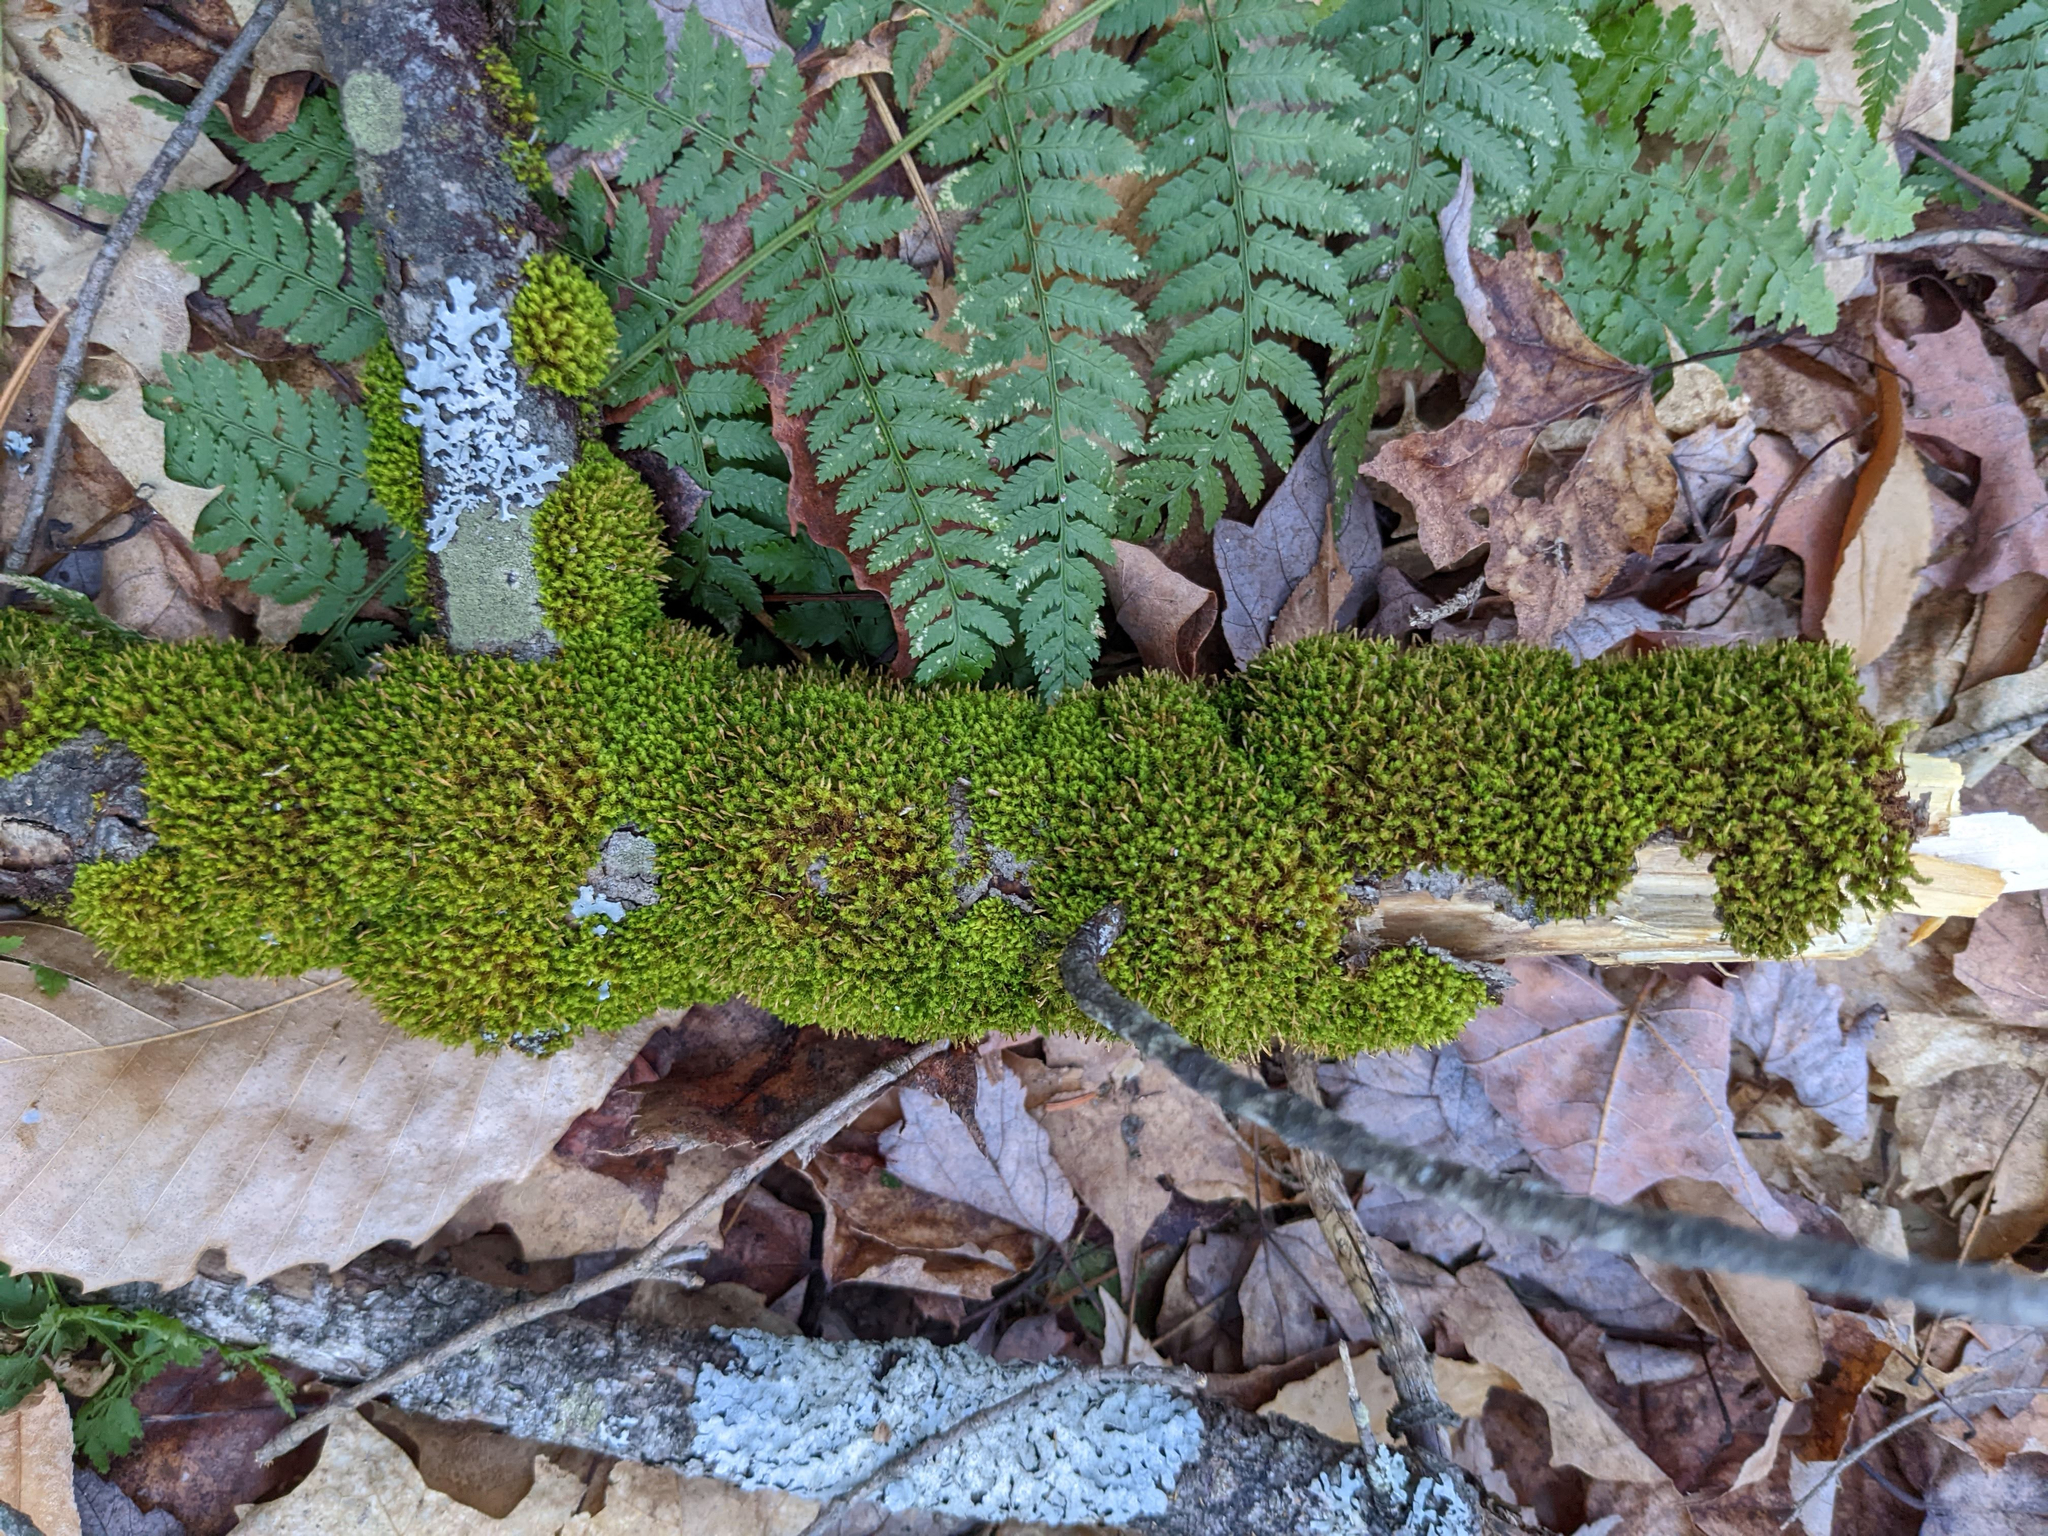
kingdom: Plantae
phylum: Bryophyta
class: Bryopsida
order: Orthotrichales
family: Orthotrichaceae
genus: Ulota
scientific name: Ulota crispa
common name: Crisped pincushion moss
